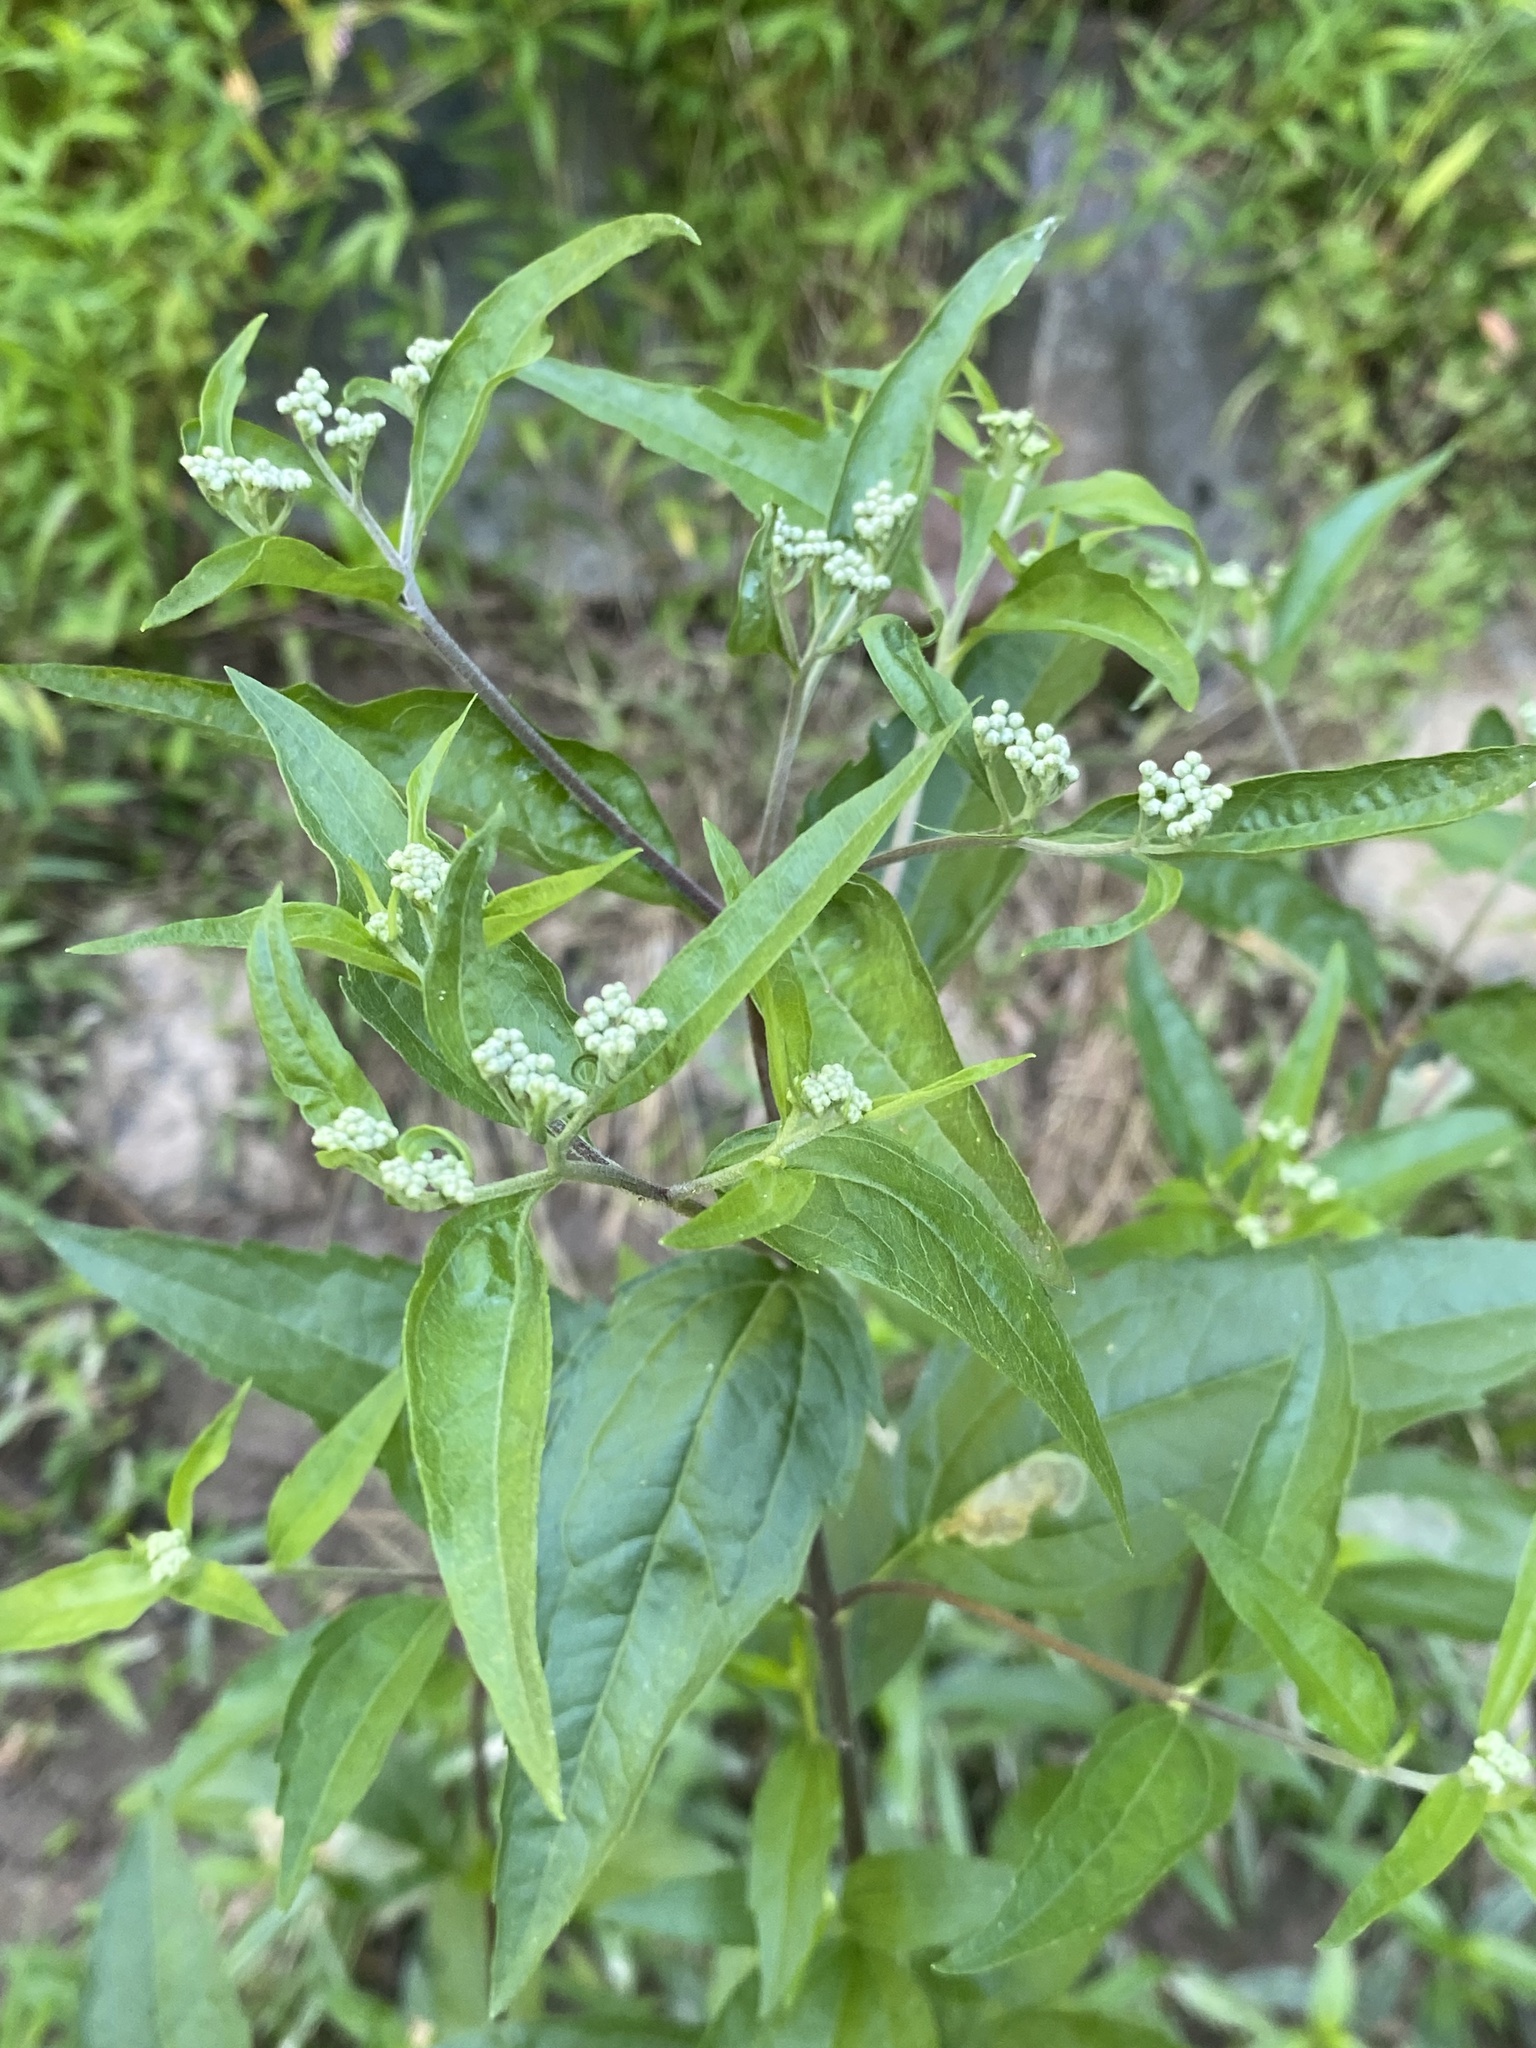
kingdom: Plantae
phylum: Tracheophyta
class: Magnoliopsida
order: Asterales
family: Asteraceae
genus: Eupatorium
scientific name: Eupatorium serotinum
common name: Late boneset
